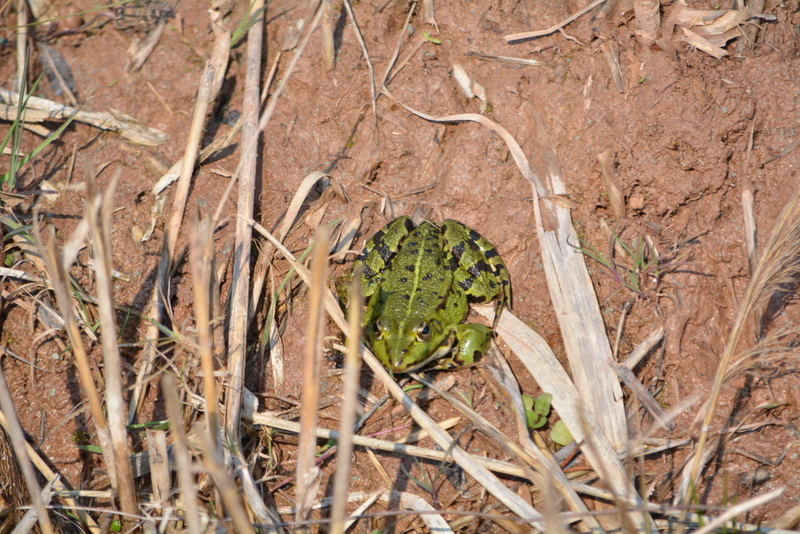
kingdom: Animalia
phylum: Chordata
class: Amphibia
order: Anura
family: Ranidae
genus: Pelophylax
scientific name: Pelophylax
